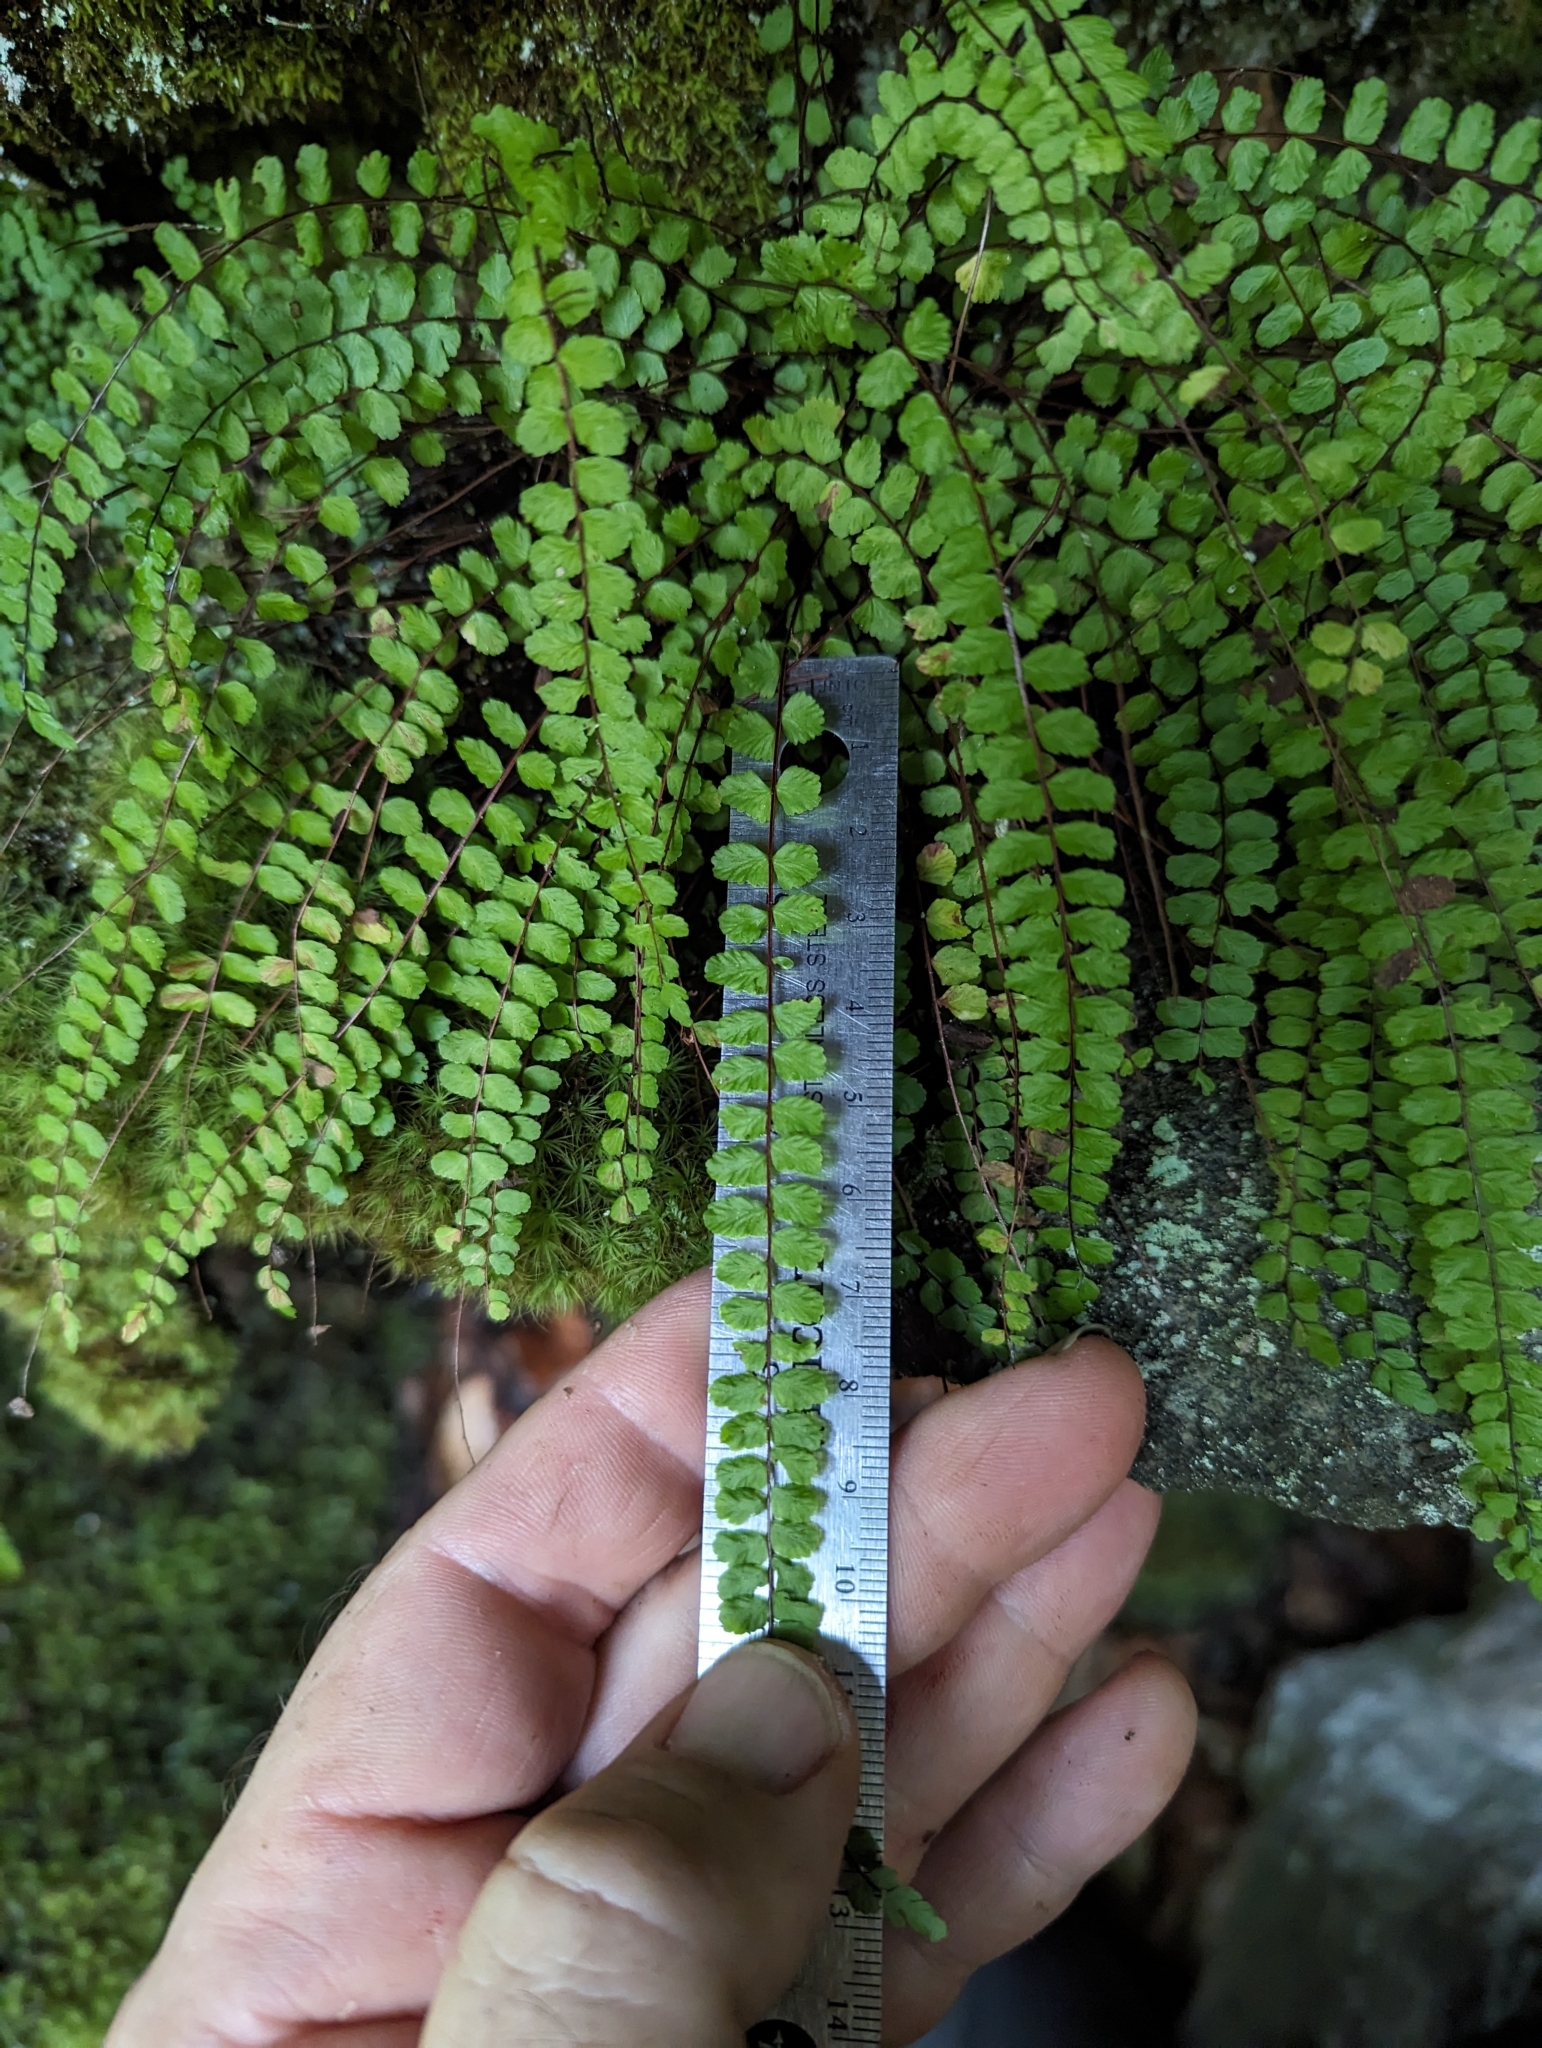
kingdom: Plantae
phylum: Tracheophyta
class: Polypodiopsida
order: Polypodiales
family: Aspleniaceae
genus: Asplenium
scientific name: Asplenium trichomanes
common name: Maidenhair spleenwort
